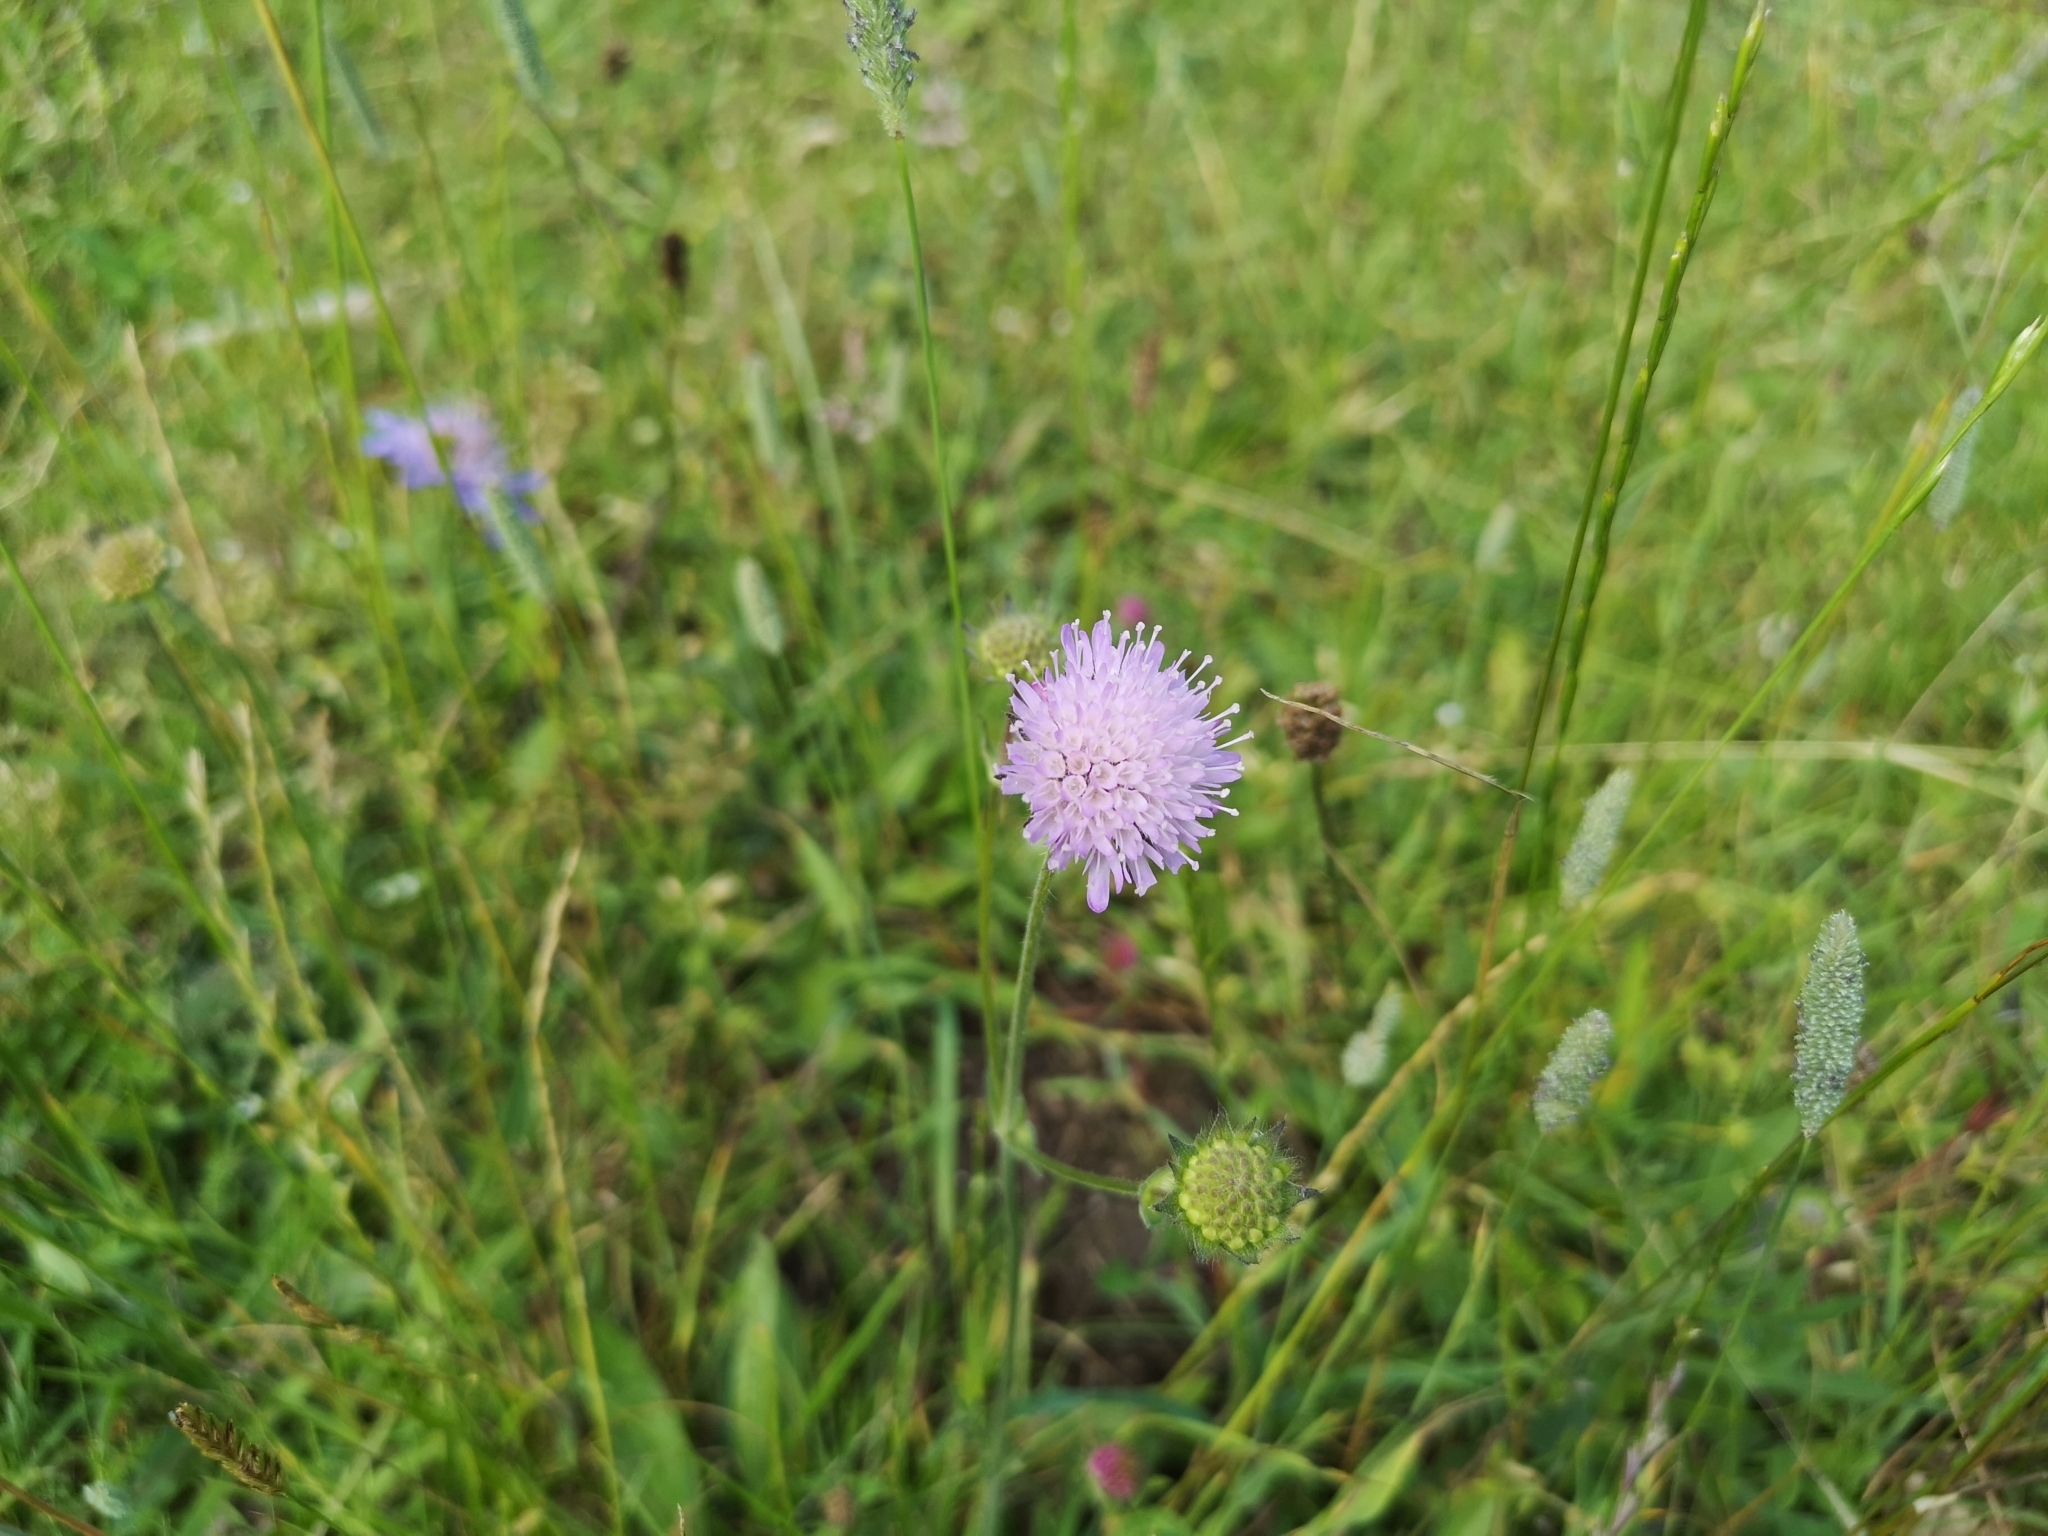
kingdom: Plantae
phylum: Tracheophyta
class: Magnoliopsida
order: Dipsacales
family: Caprifoliaceae
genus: Knautia
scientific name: Knautia arvensis
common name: Field scabiosa
